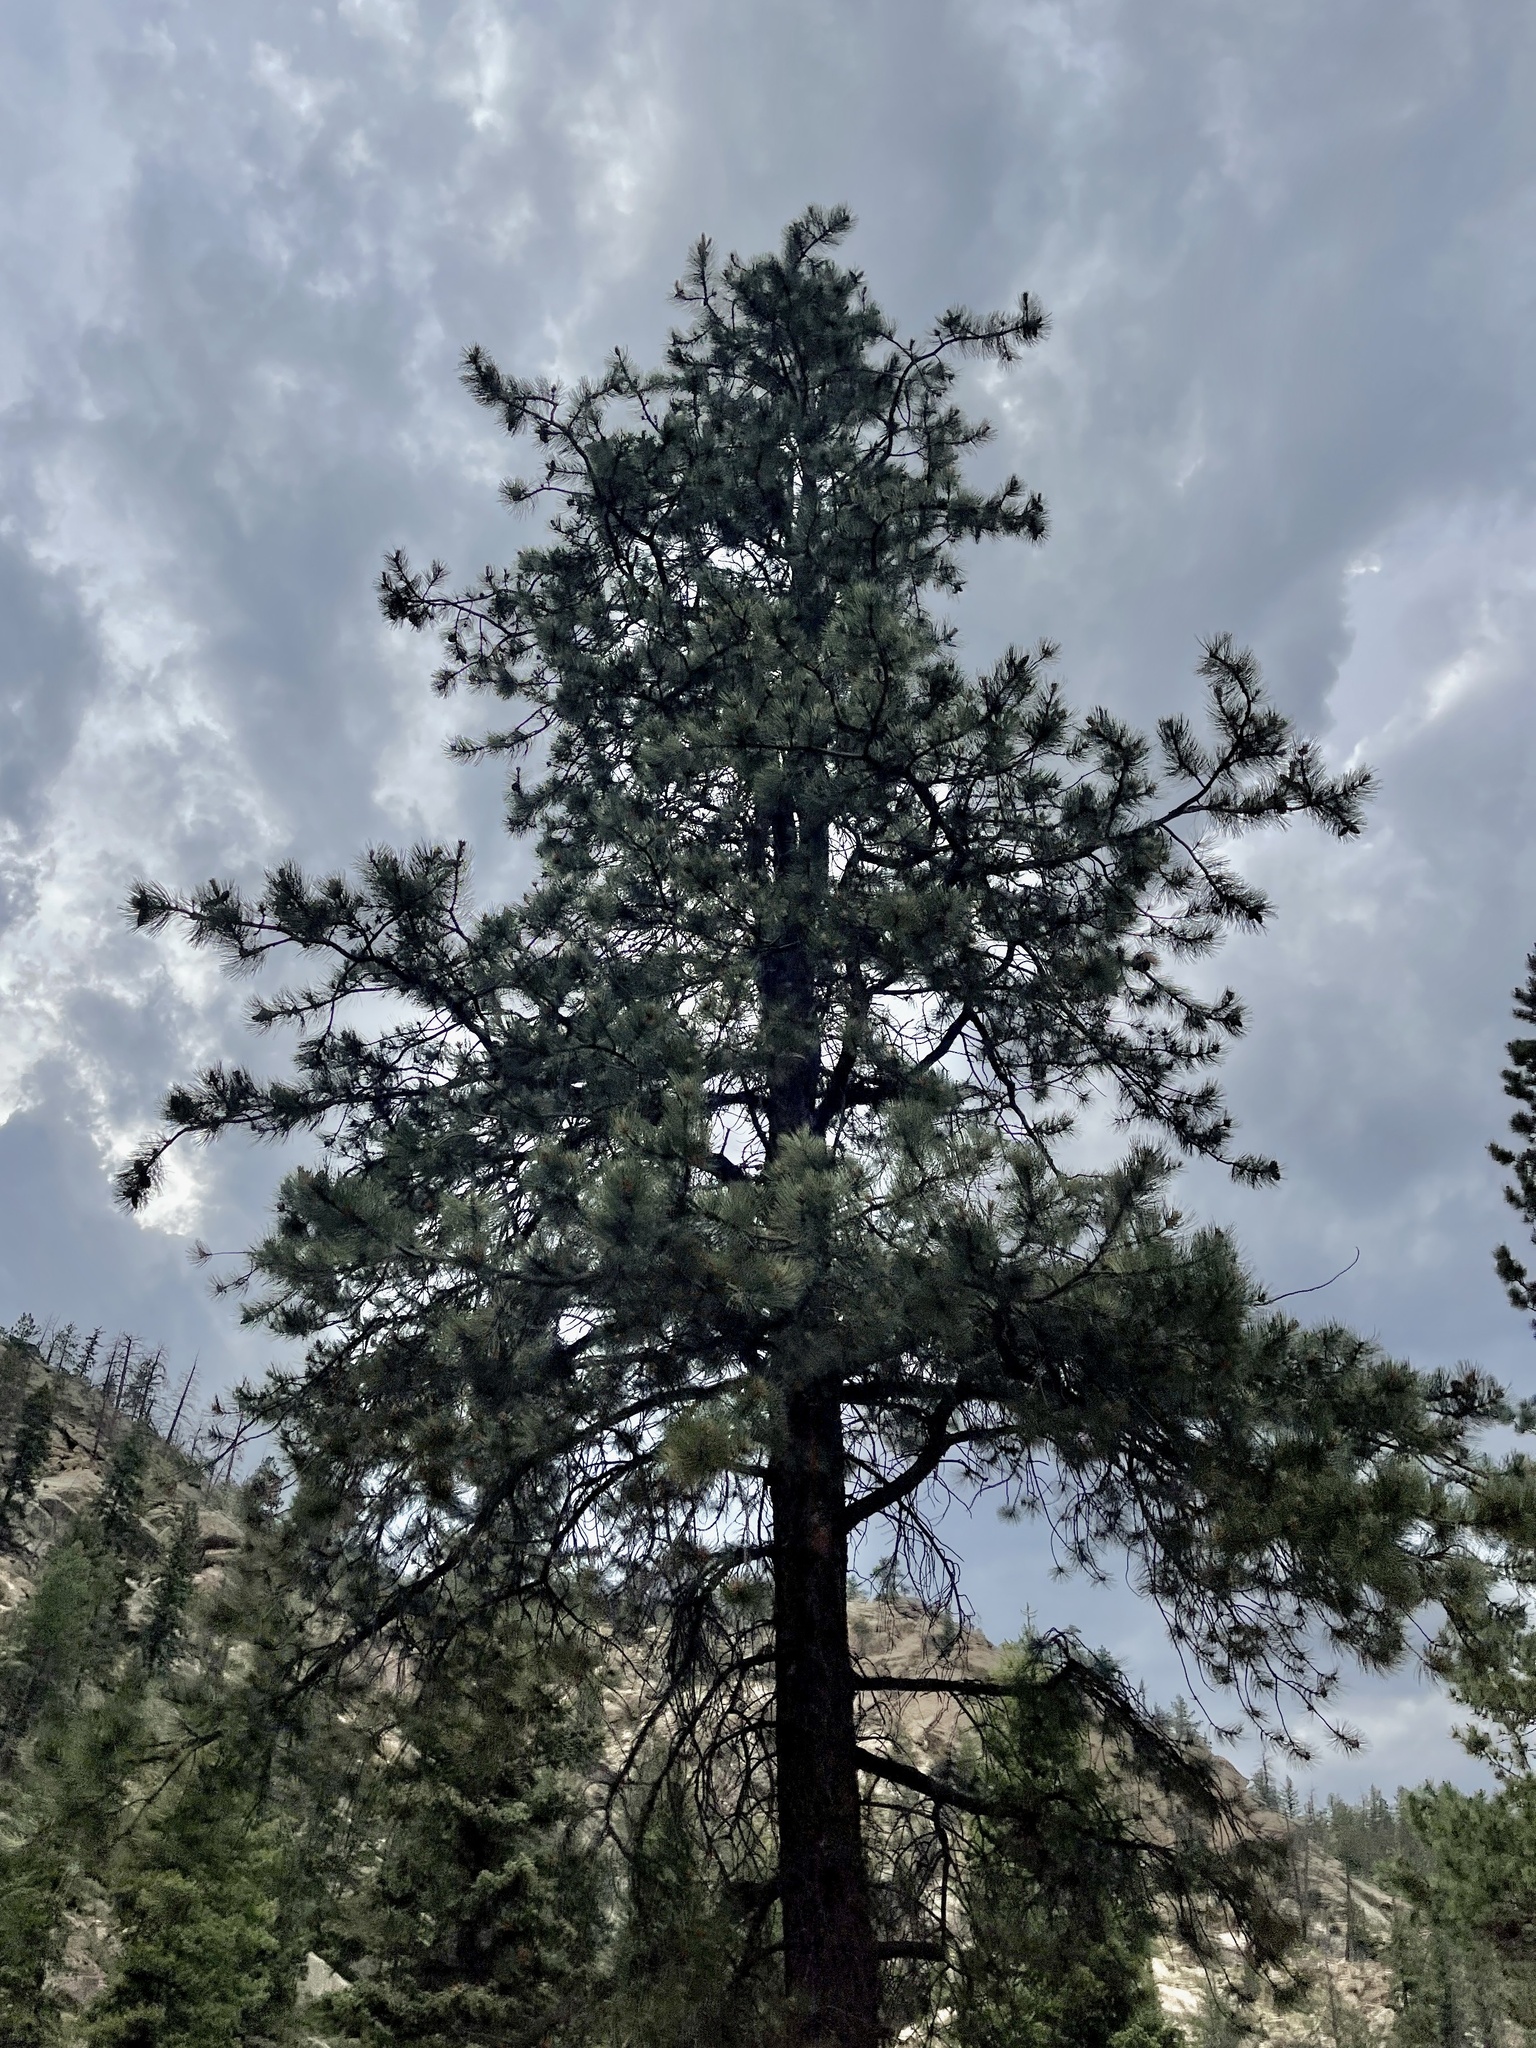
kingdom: Plantae
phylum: Tracheophyta
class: Pinopsida
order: Pinales
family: Pinaceae
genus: Pinus
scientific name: Pinus ponderosa
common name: Western yellow-pine
